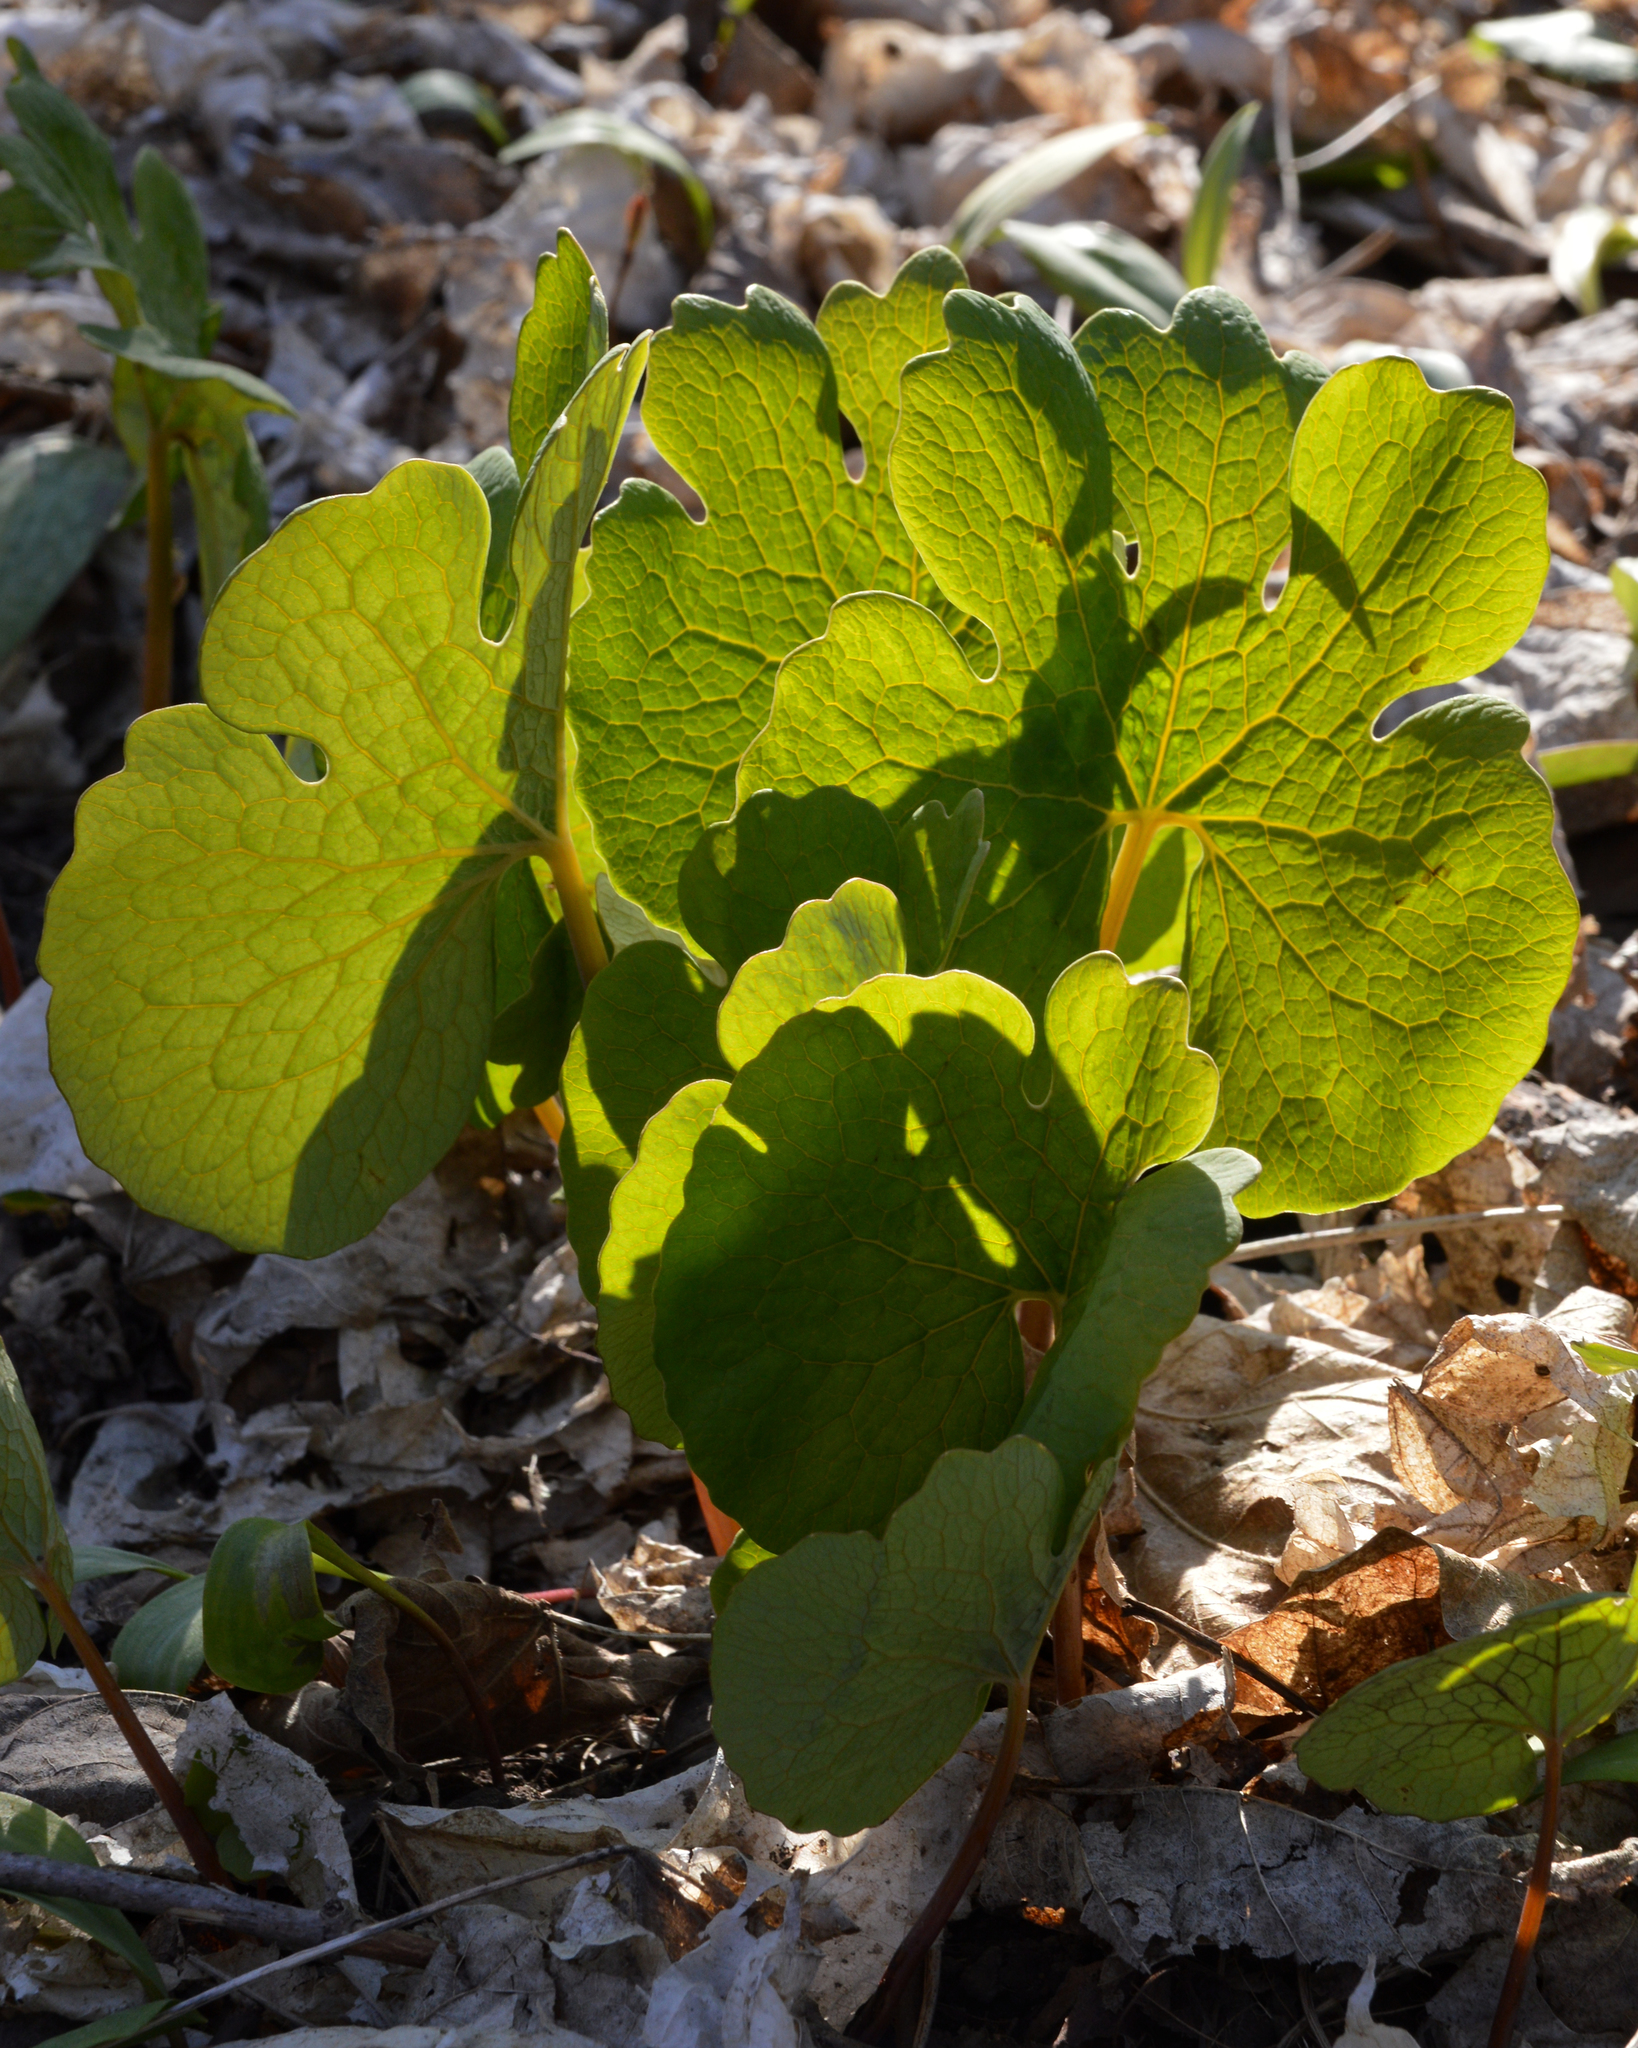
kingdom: Plantae
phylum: Tracheophyta
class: Magnoliopsida
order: Ranunculales
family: Papaveraceae
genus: Sanguinaria
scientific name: Sanguinaria canadensis
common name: Bloodroot
